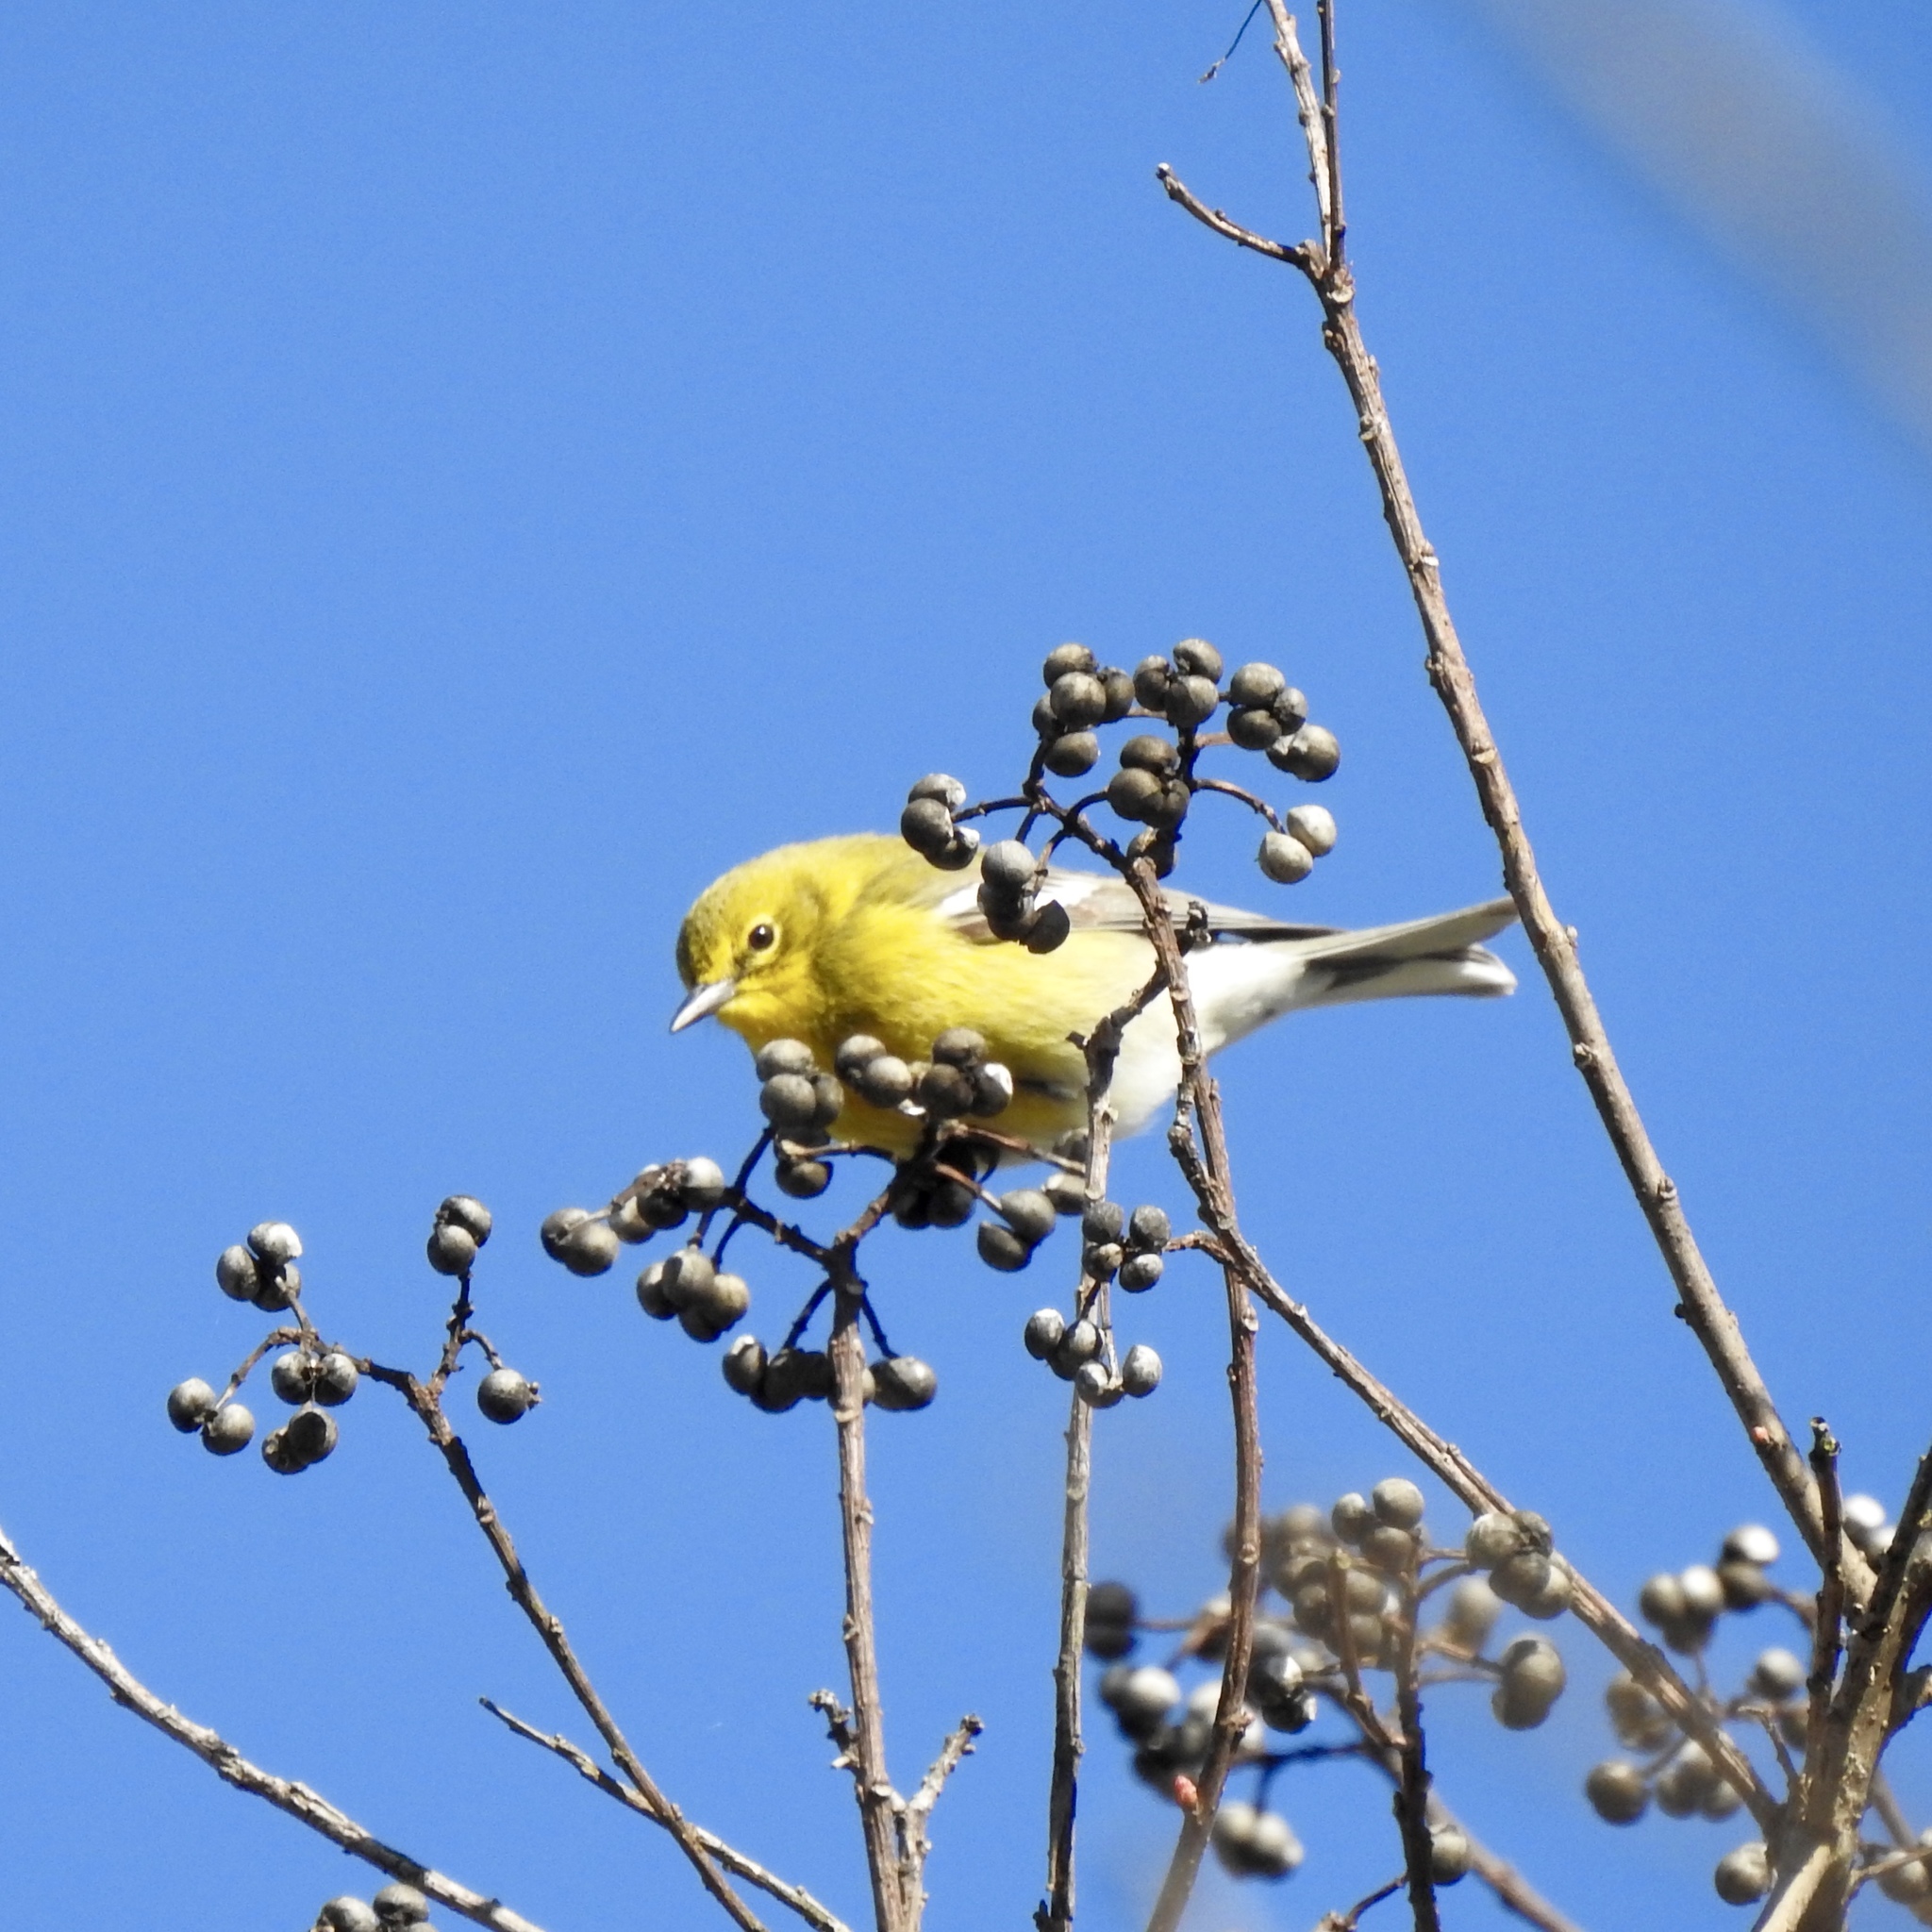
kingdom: Animalia
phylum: Chordata
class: Aves
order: Passeriformes
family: Parulidae
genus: Setophaga
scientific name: Setophaga pinus
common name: Pine warbler
